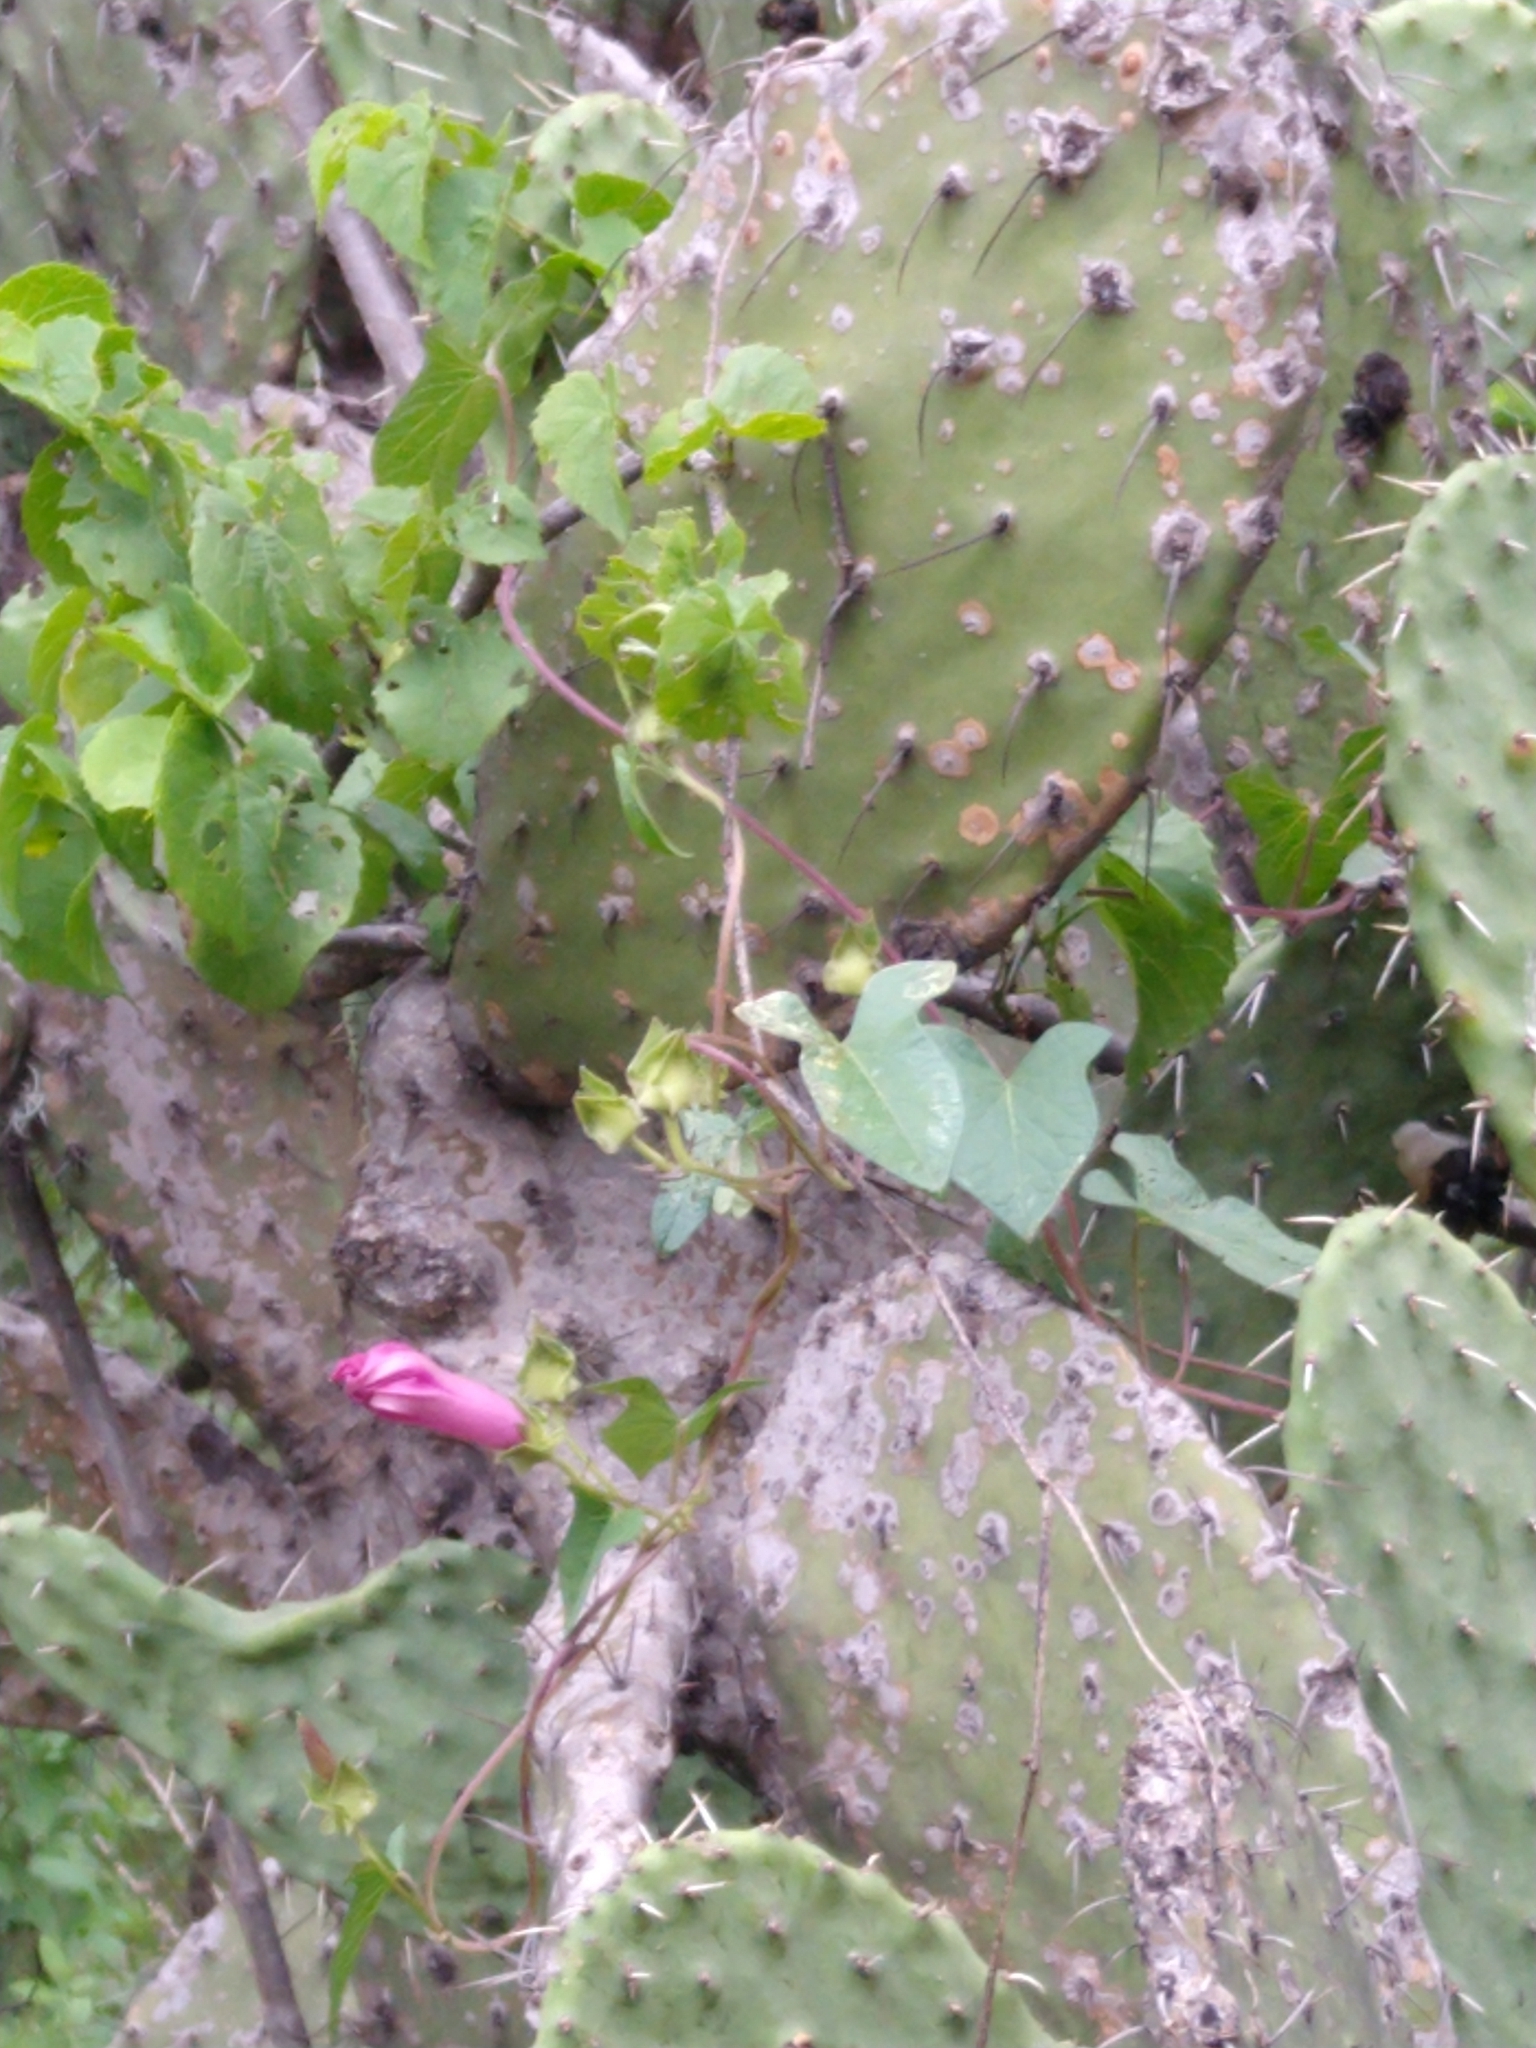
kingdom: Plantae
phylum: Tracheophyta
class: Magnoliopsida
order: Solanales
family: Convolvulaceae
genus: Ipomoea
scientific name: Ipomoea decasperma
